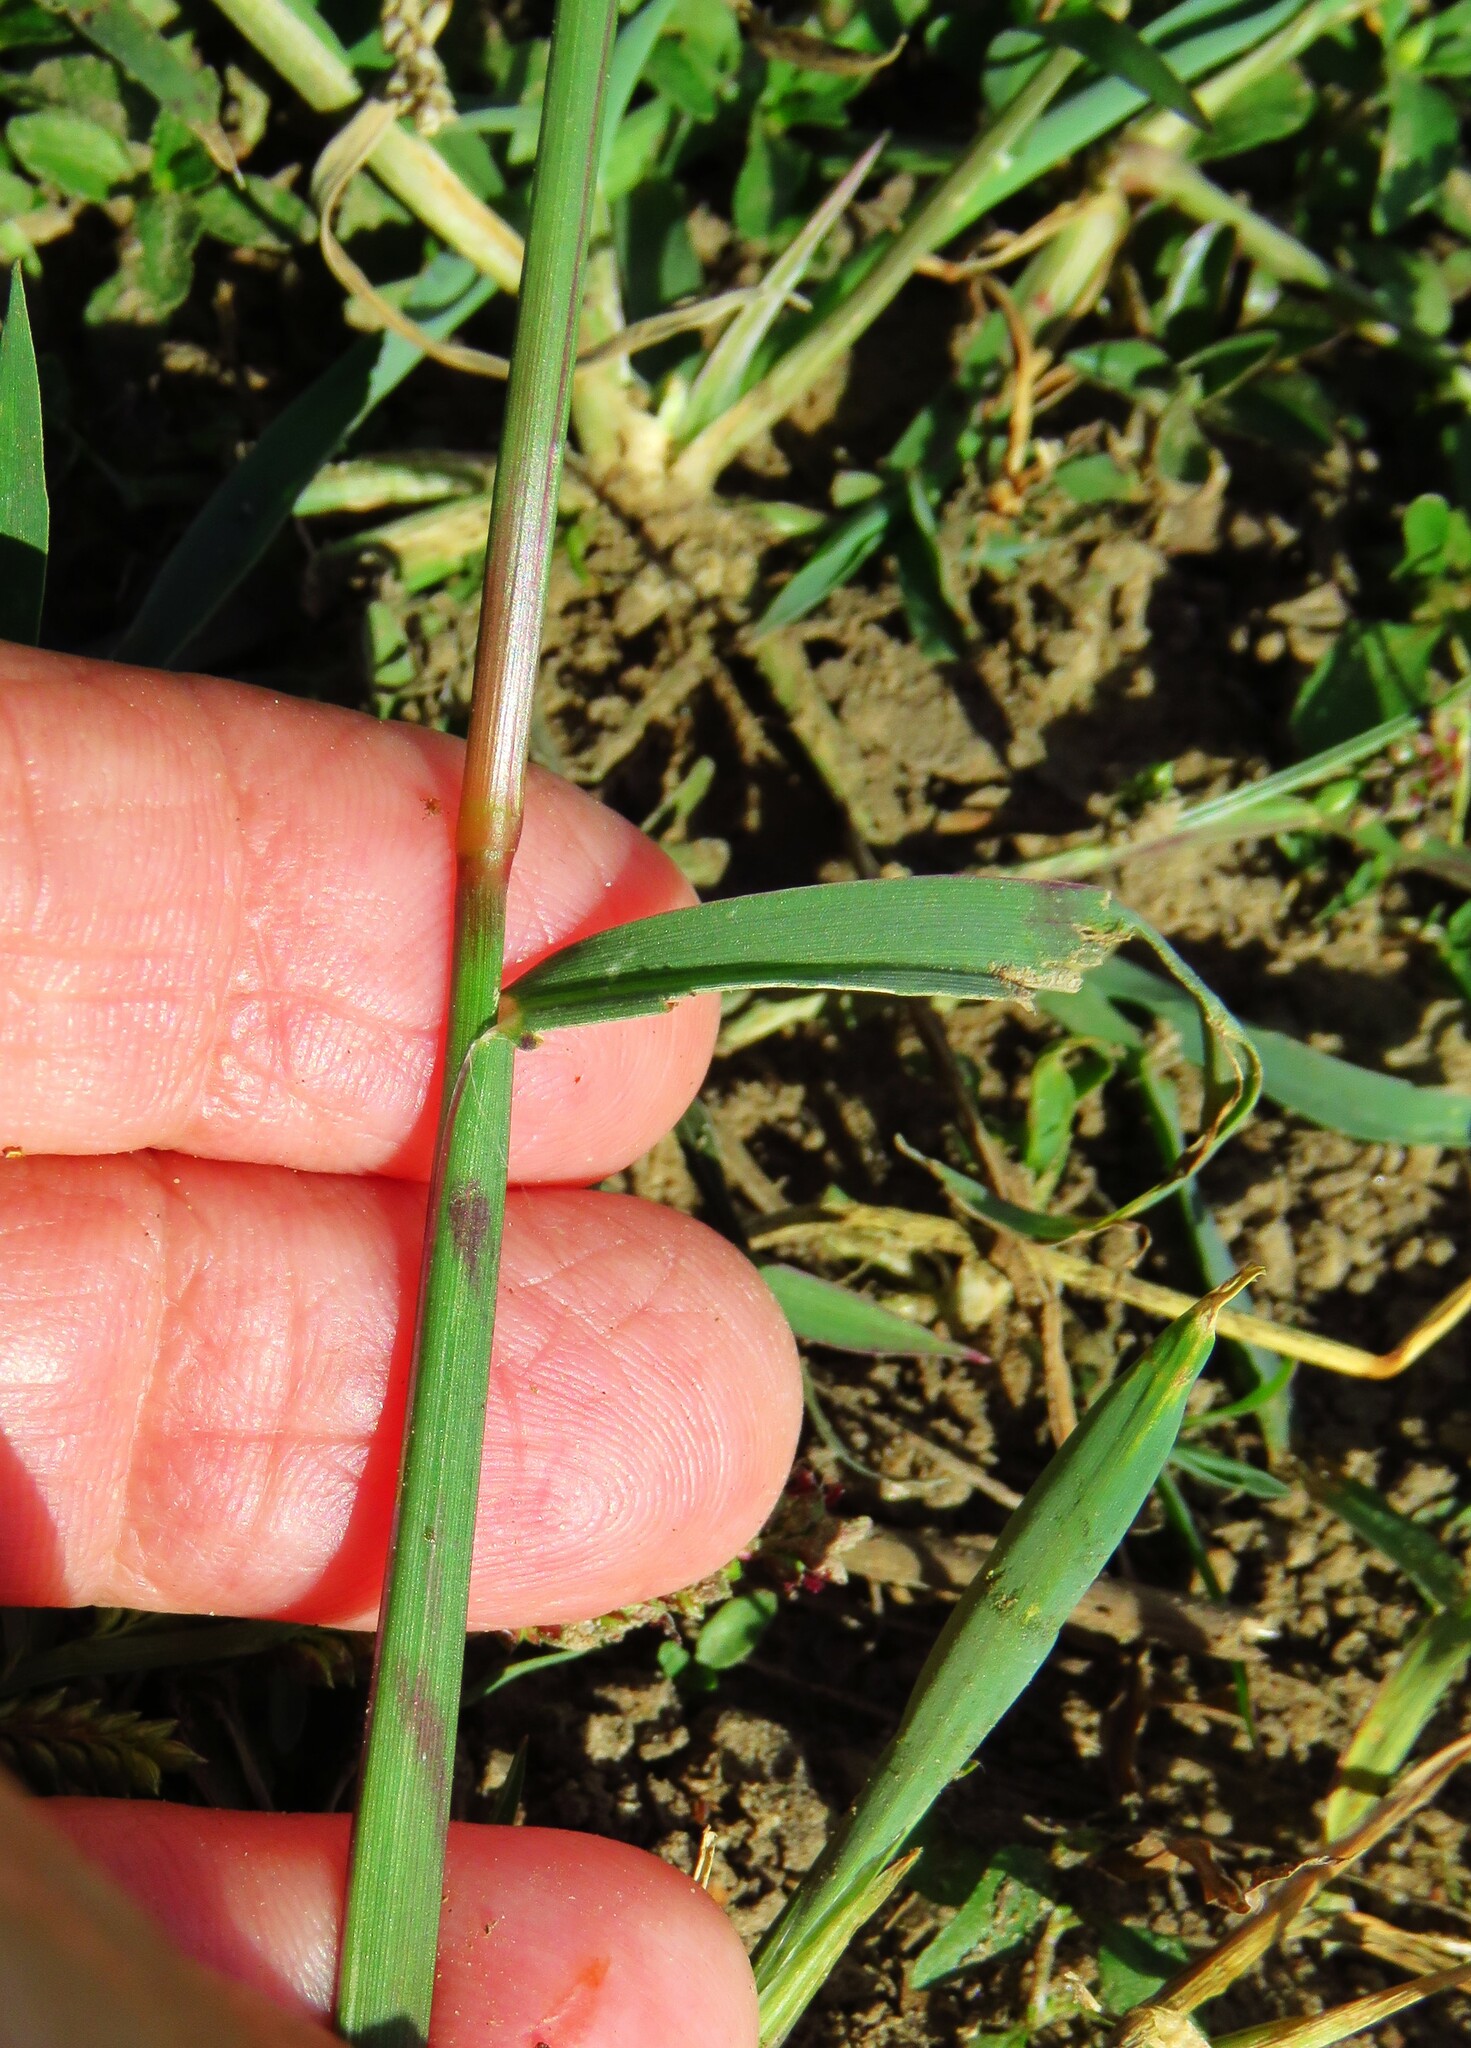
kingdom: Plantae
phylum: Tracheophyta
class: Liliopsida
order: Poales
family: Poaceae
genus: Echinochloa
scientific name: Echinochloa colonum
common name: Jungle rice
